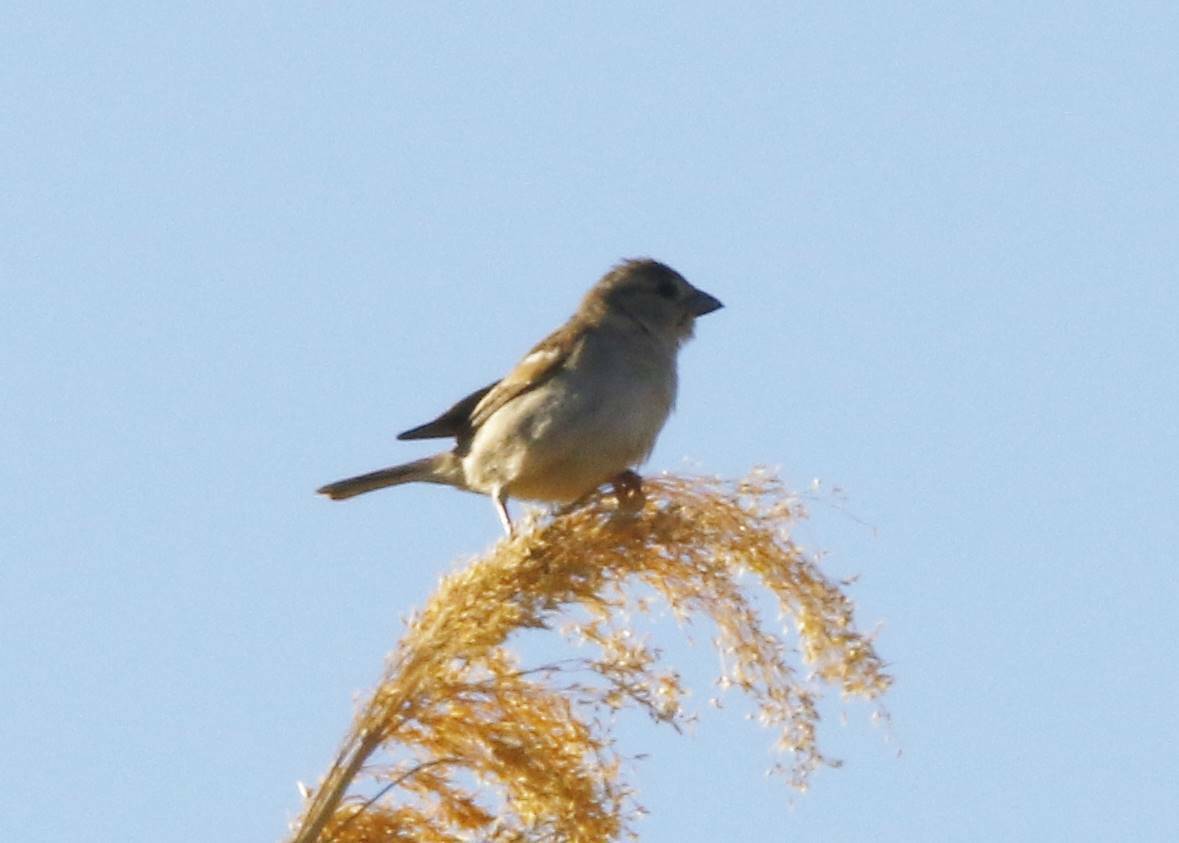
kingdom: Animalia
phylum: Chordata
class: Aves
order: Passeriformes
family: Passeridae
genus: Passer
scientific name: Passer domesticus
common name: House sparrow
